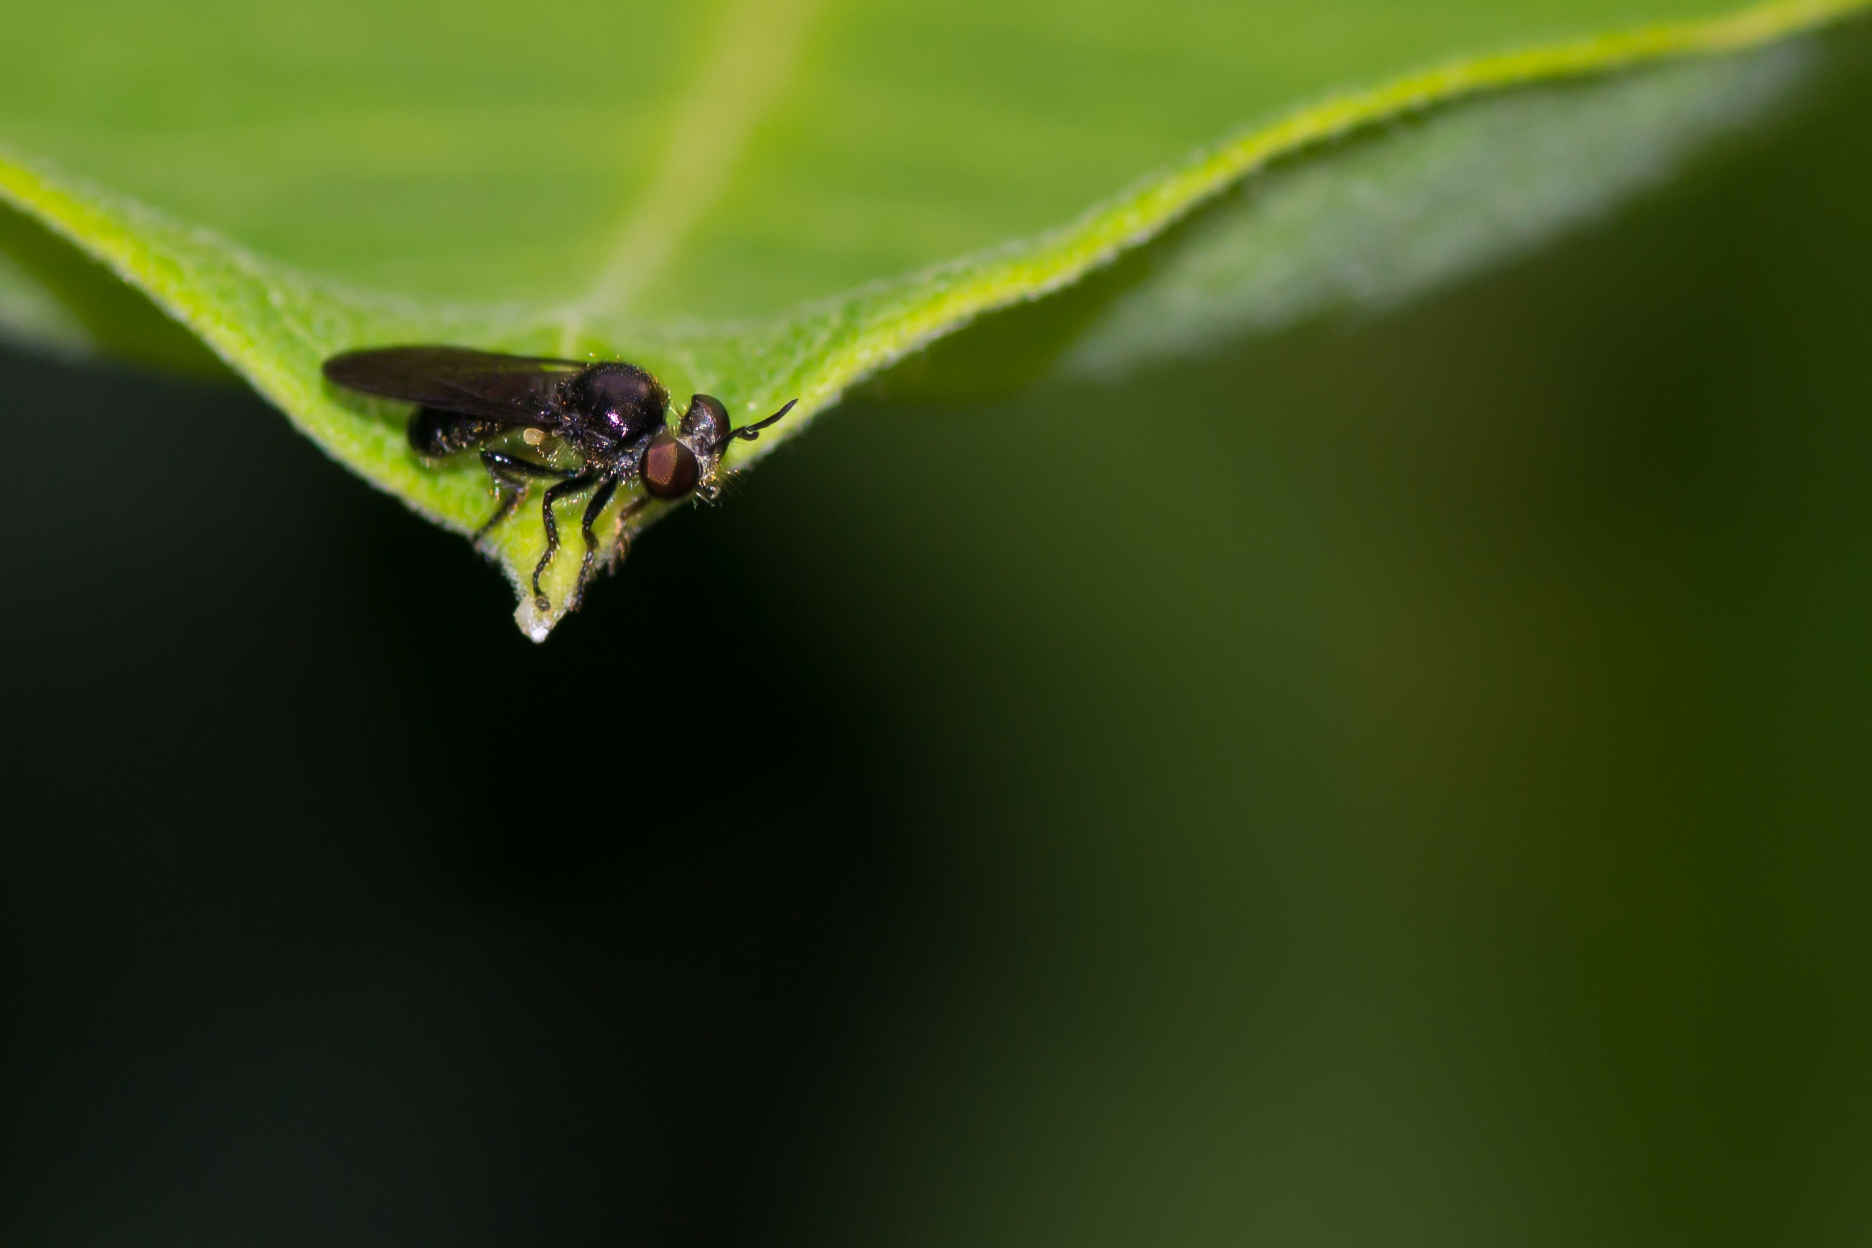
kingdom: Animalia
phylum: Arthropoda
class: Insecta
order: Diptera
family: Asilidae
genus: Cerotainia
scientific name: Cerotainia macrocera
